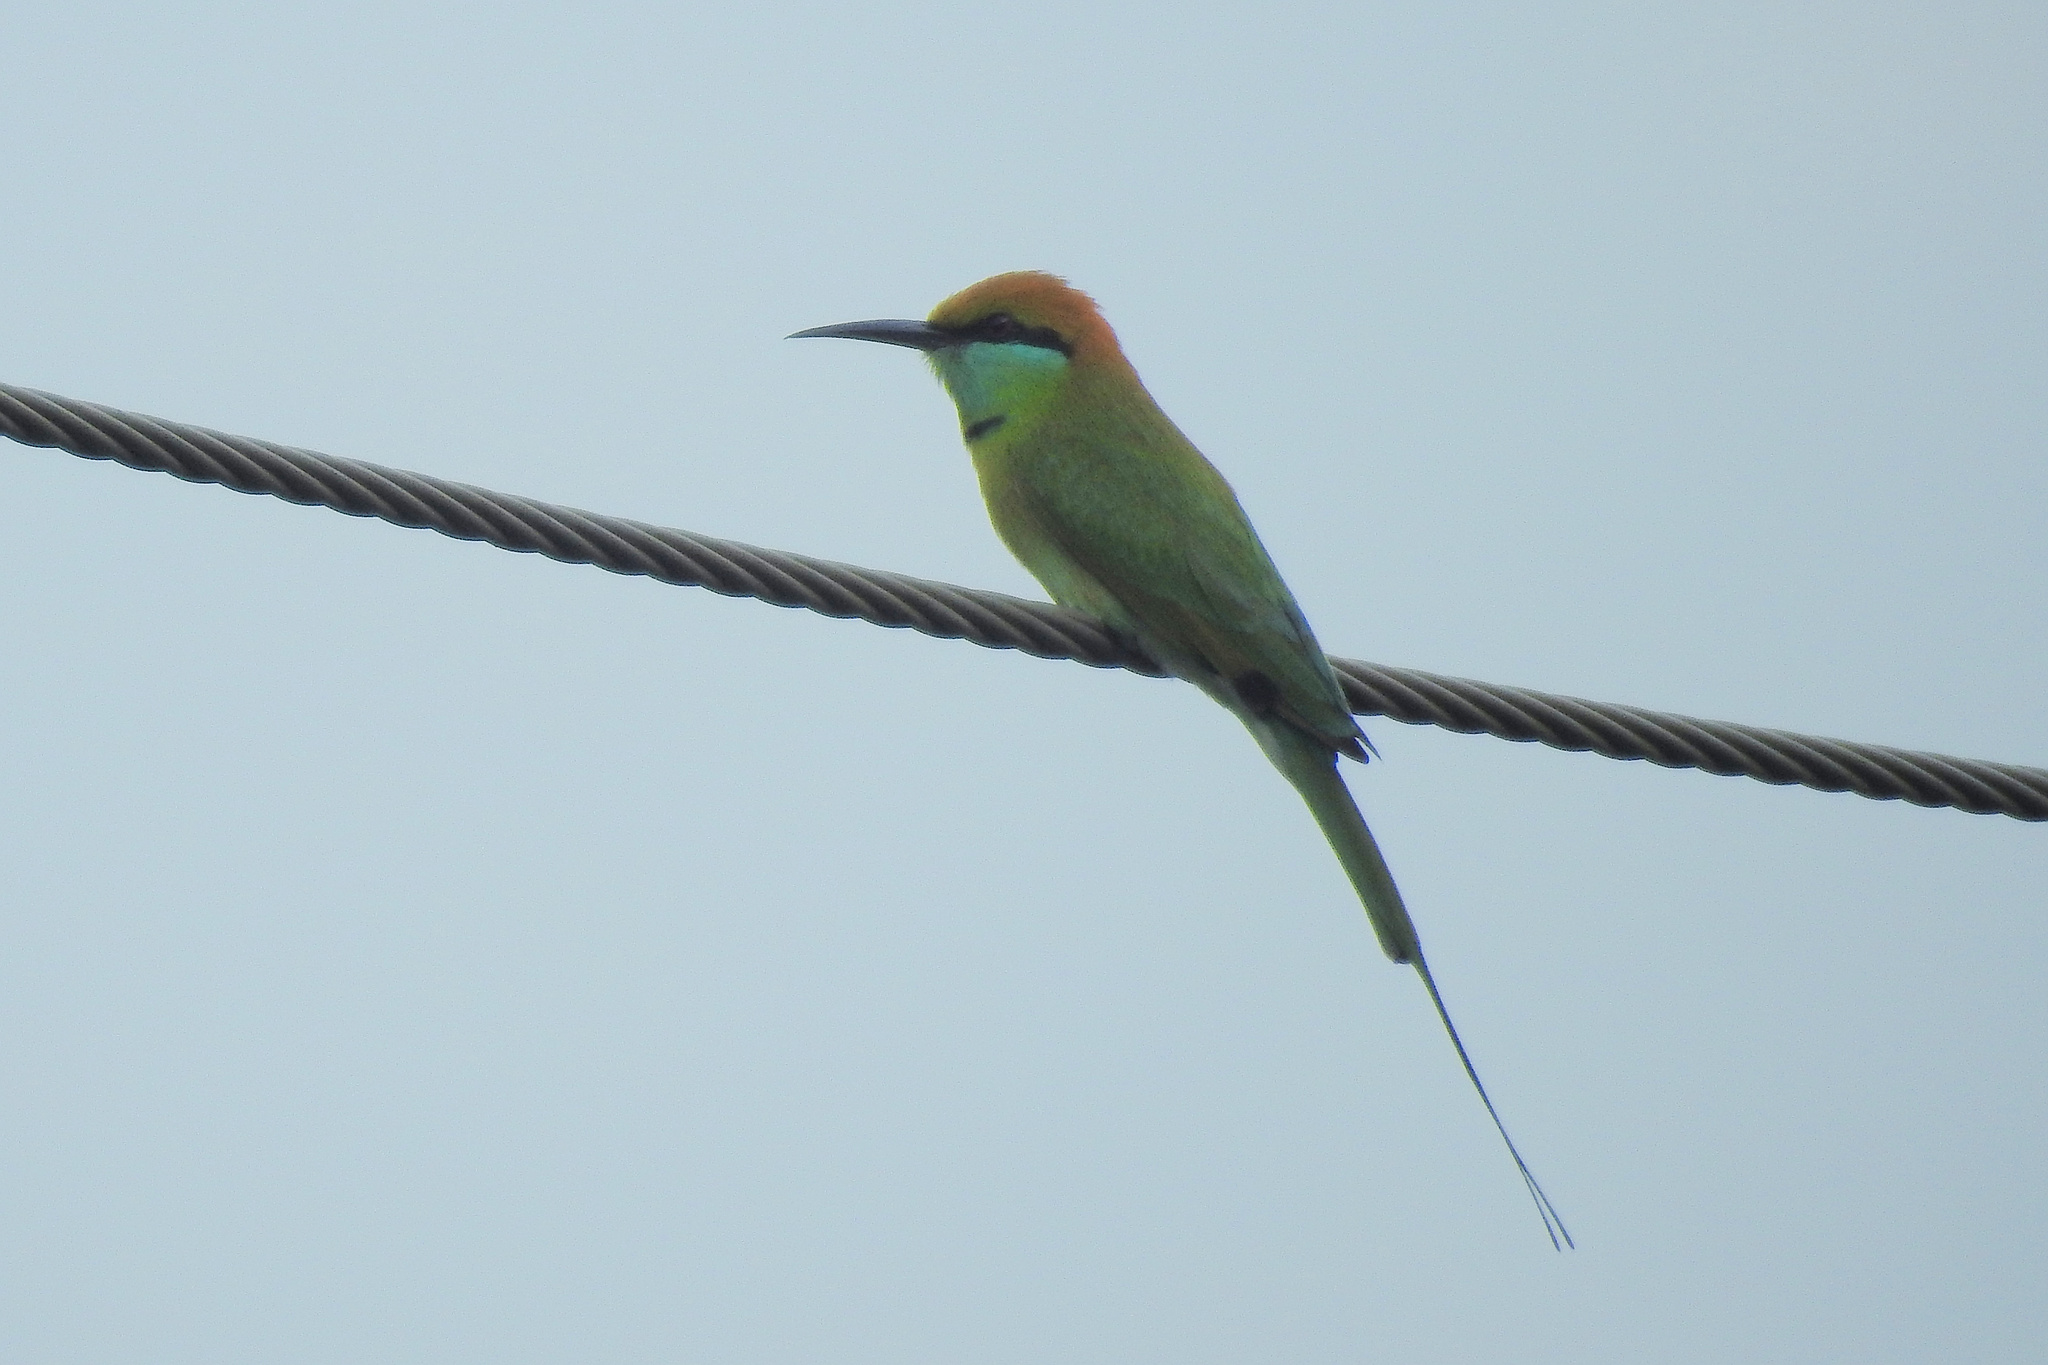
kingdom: Animalia
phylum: Chordata
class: Aves
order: Coraciiformes
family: Meropidae
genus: Merops
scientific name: Merops orientalis
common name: Green bee-eater
